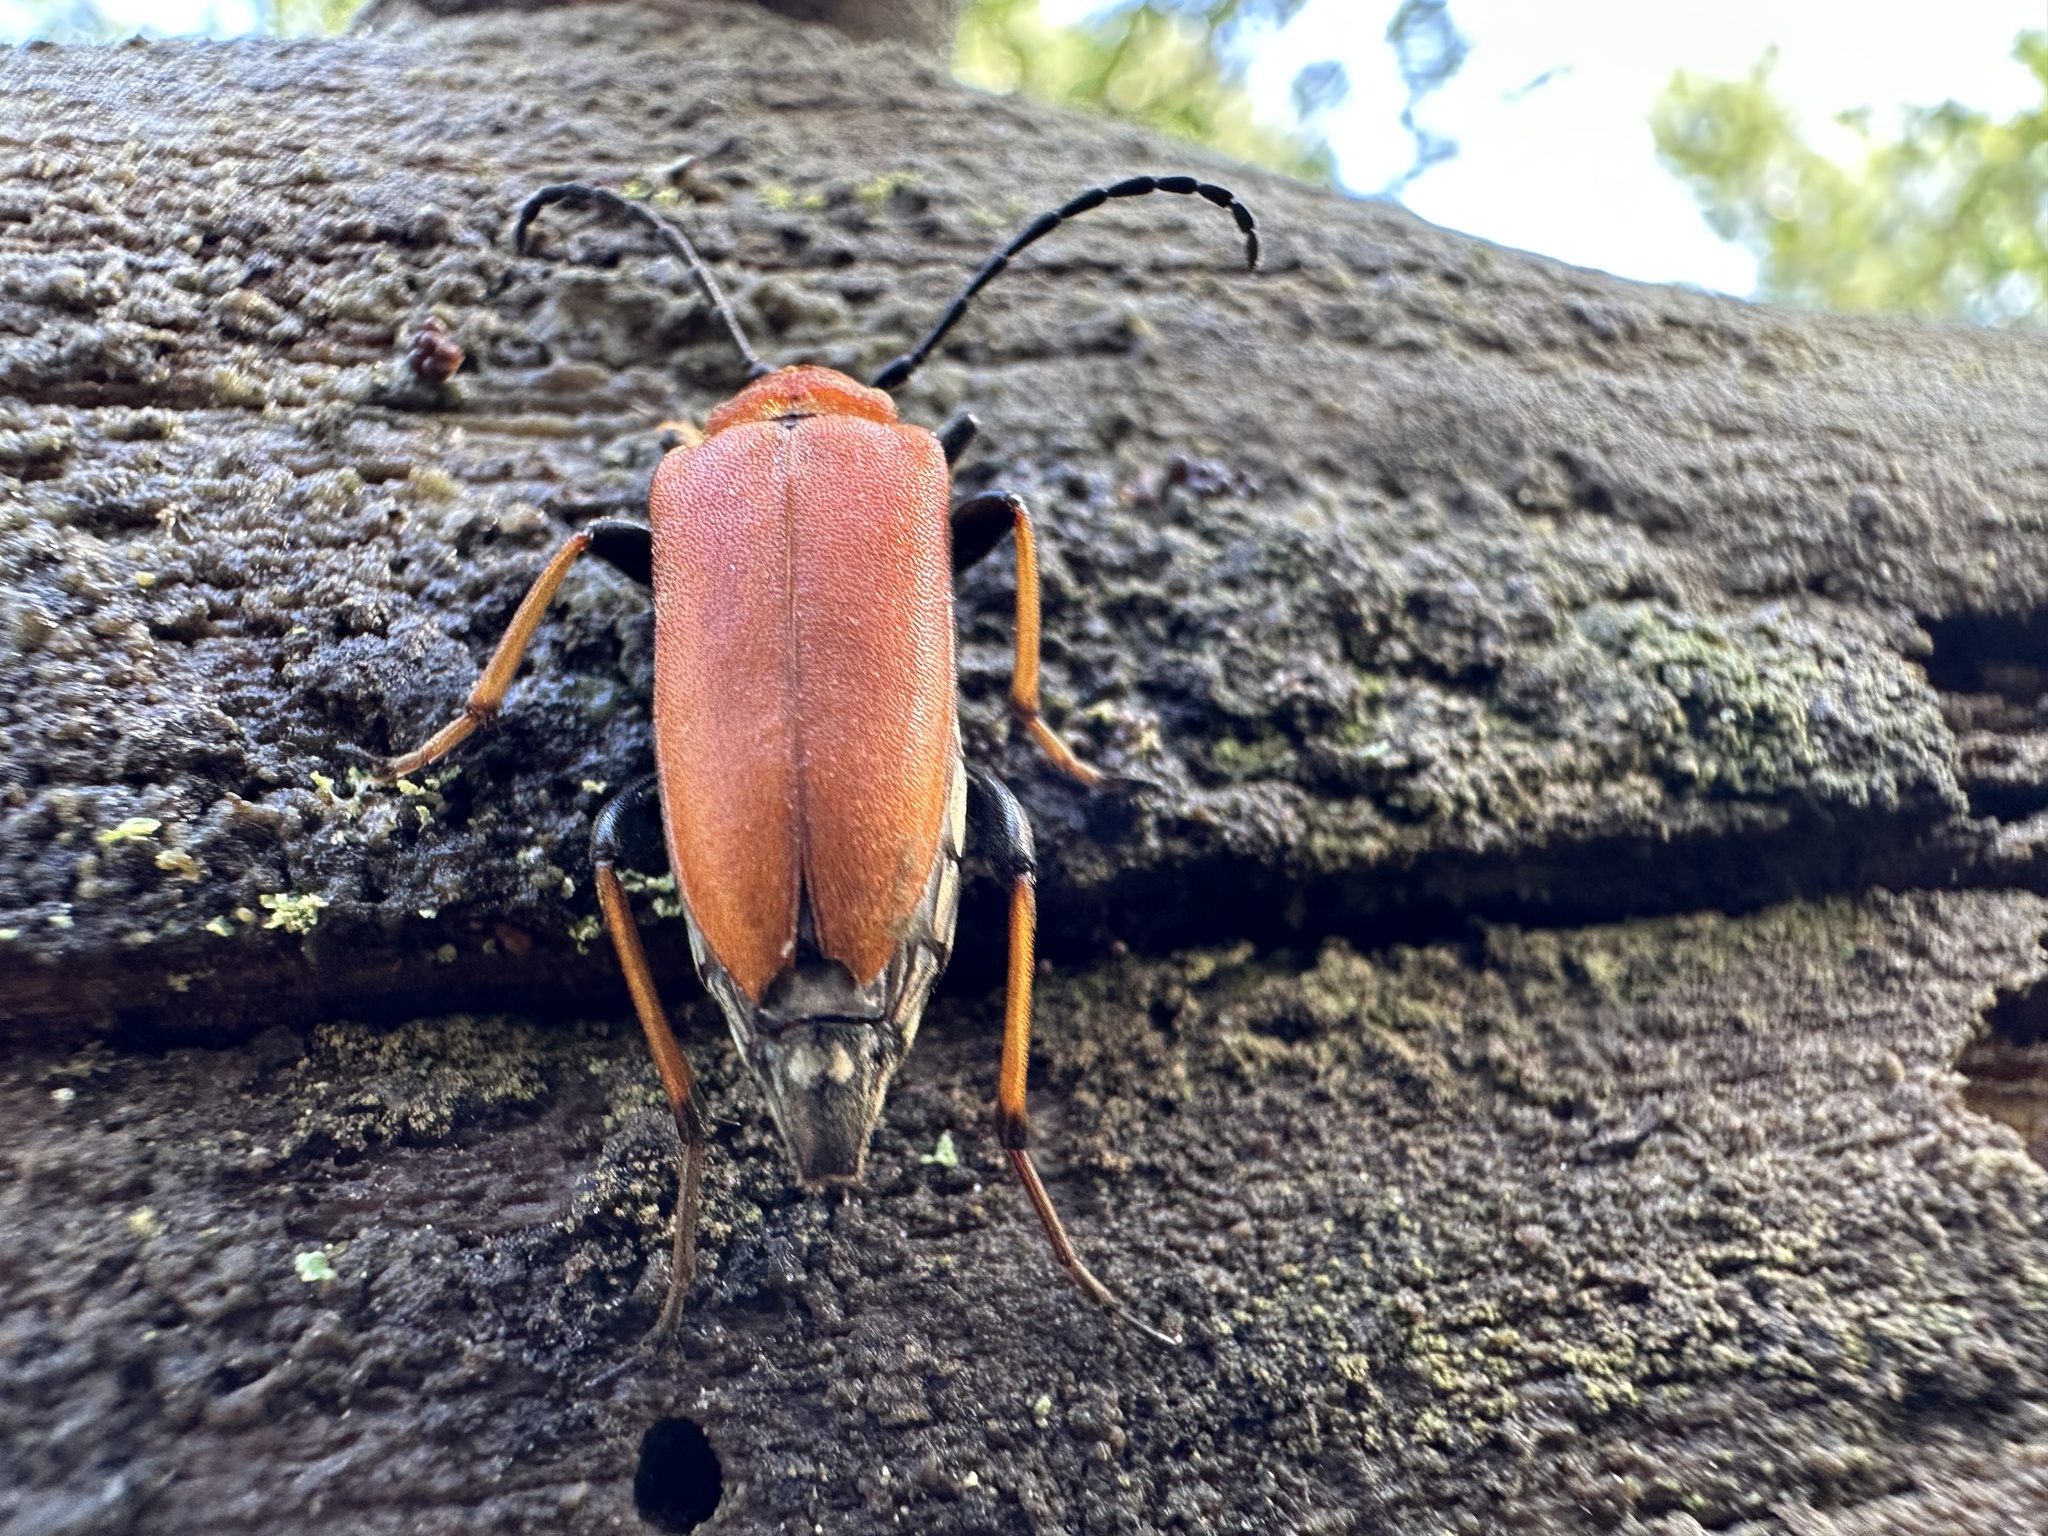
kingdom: Animalia
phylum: Arthropoda
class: Insecta
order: Coleoptera
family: Cerambycidae
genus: Stictoleptura
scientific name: Stictoleptura rubra
